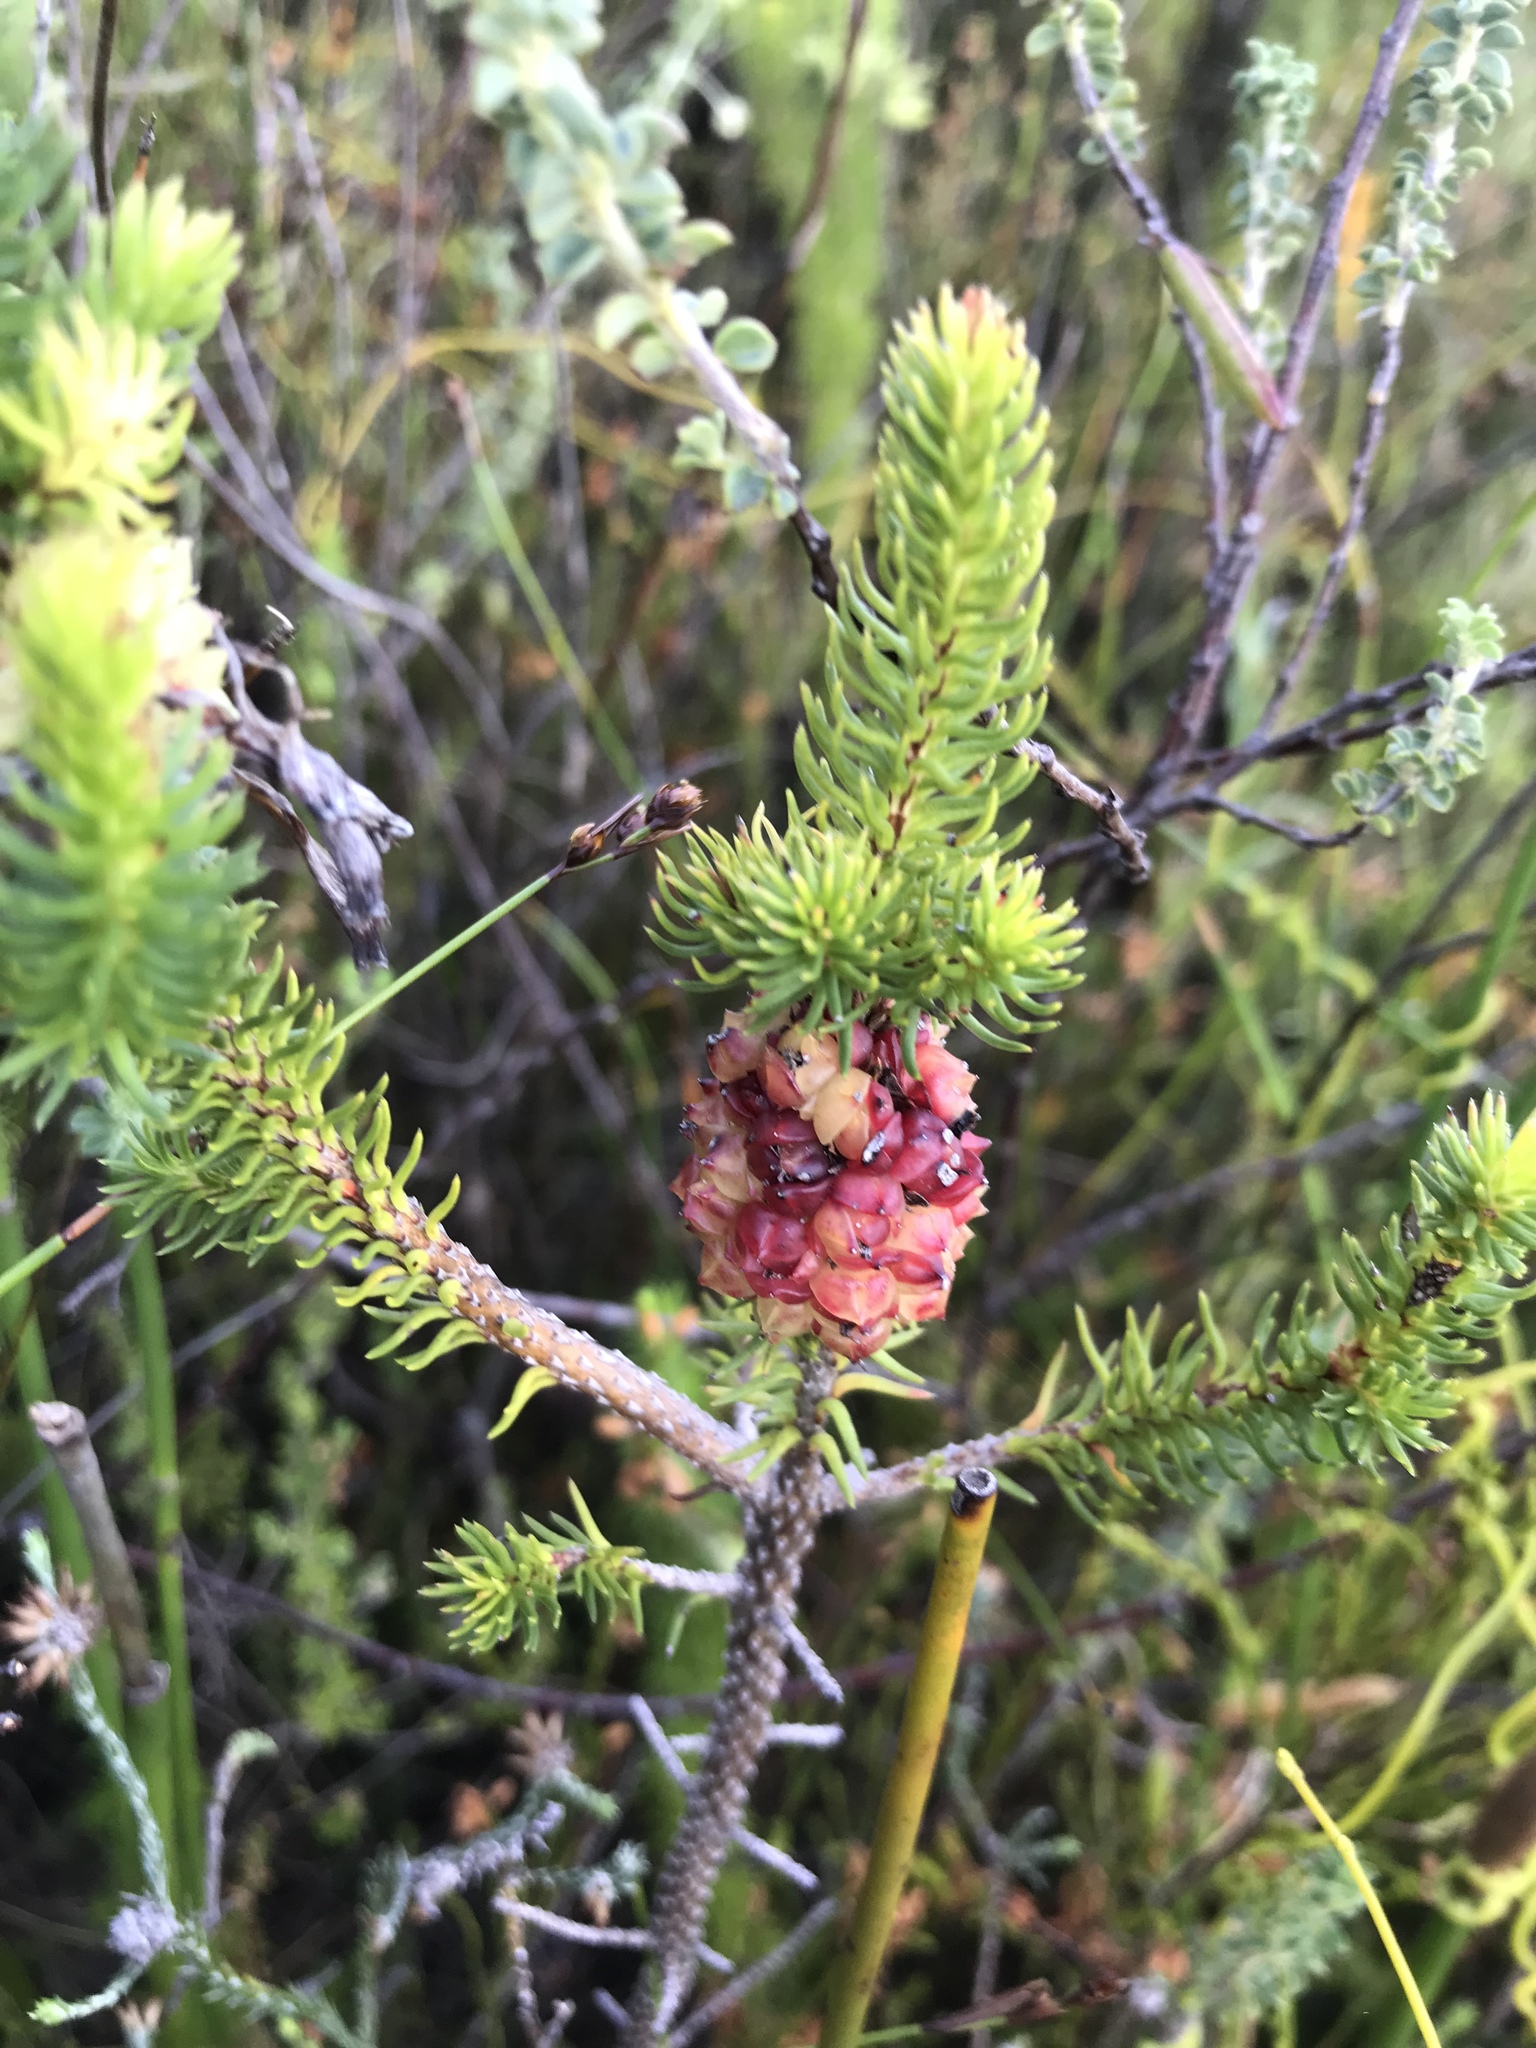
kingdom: Plantae
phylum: Tracheophyta
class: Magnoliopsida
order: Ericales
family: Ericaceae
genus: Erica
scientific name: Erica sessiliflora
